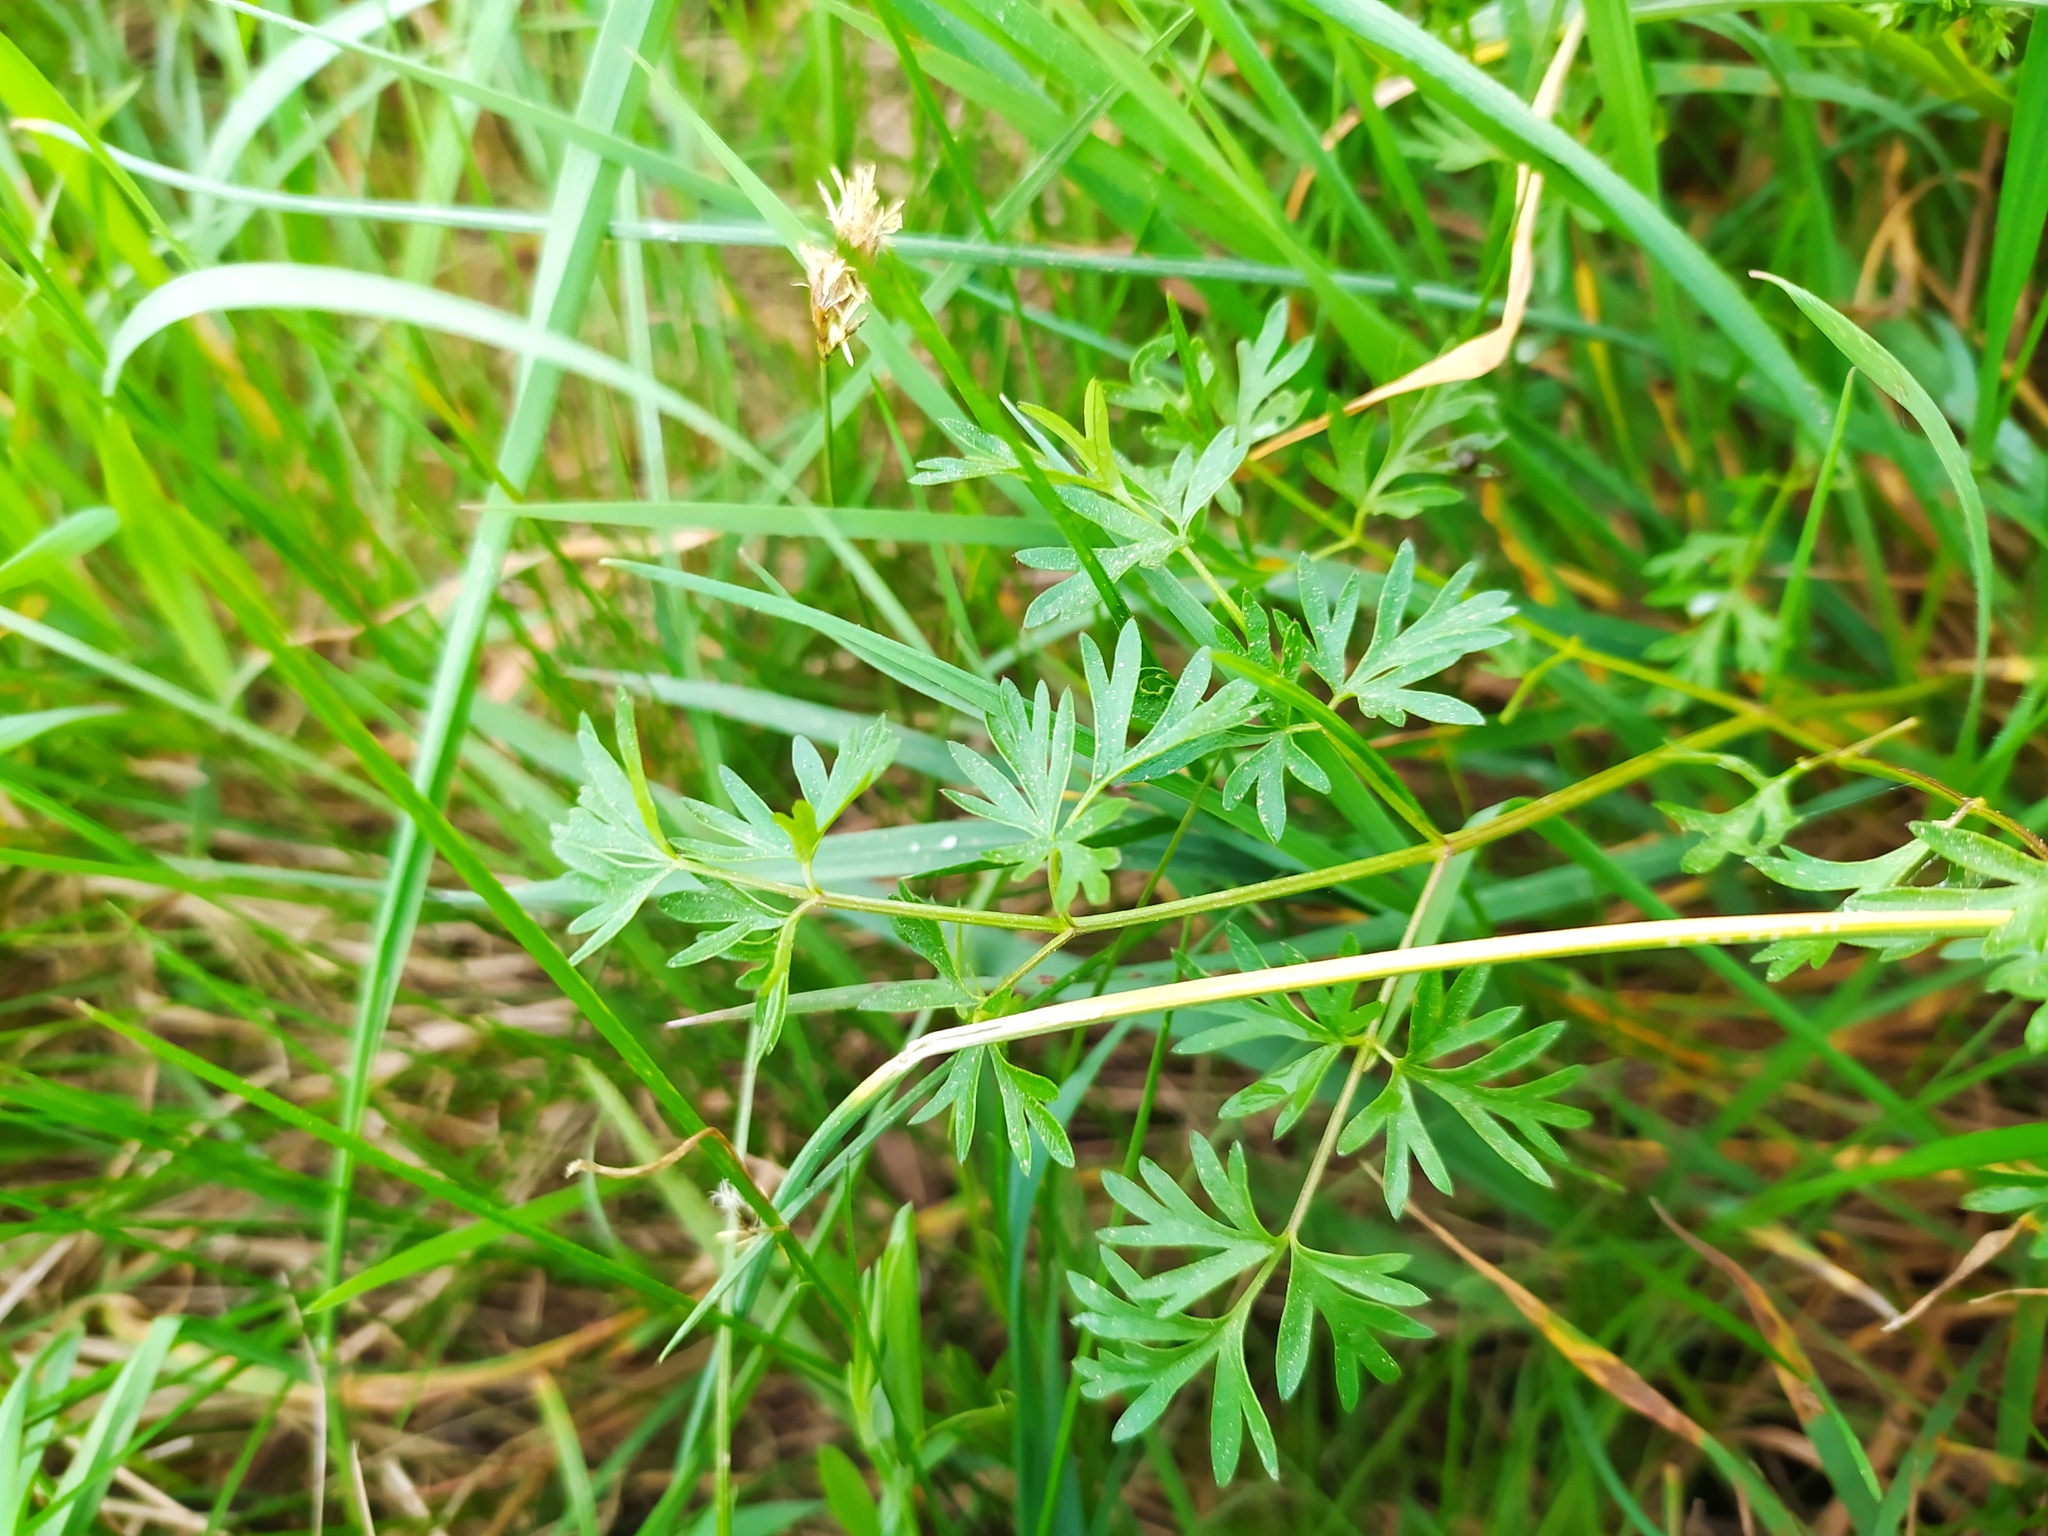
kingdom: Plantae
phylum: Tracheophyta
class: Magnoliopsida
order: Apiales
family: Apiaceae
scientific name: Apiaceae
